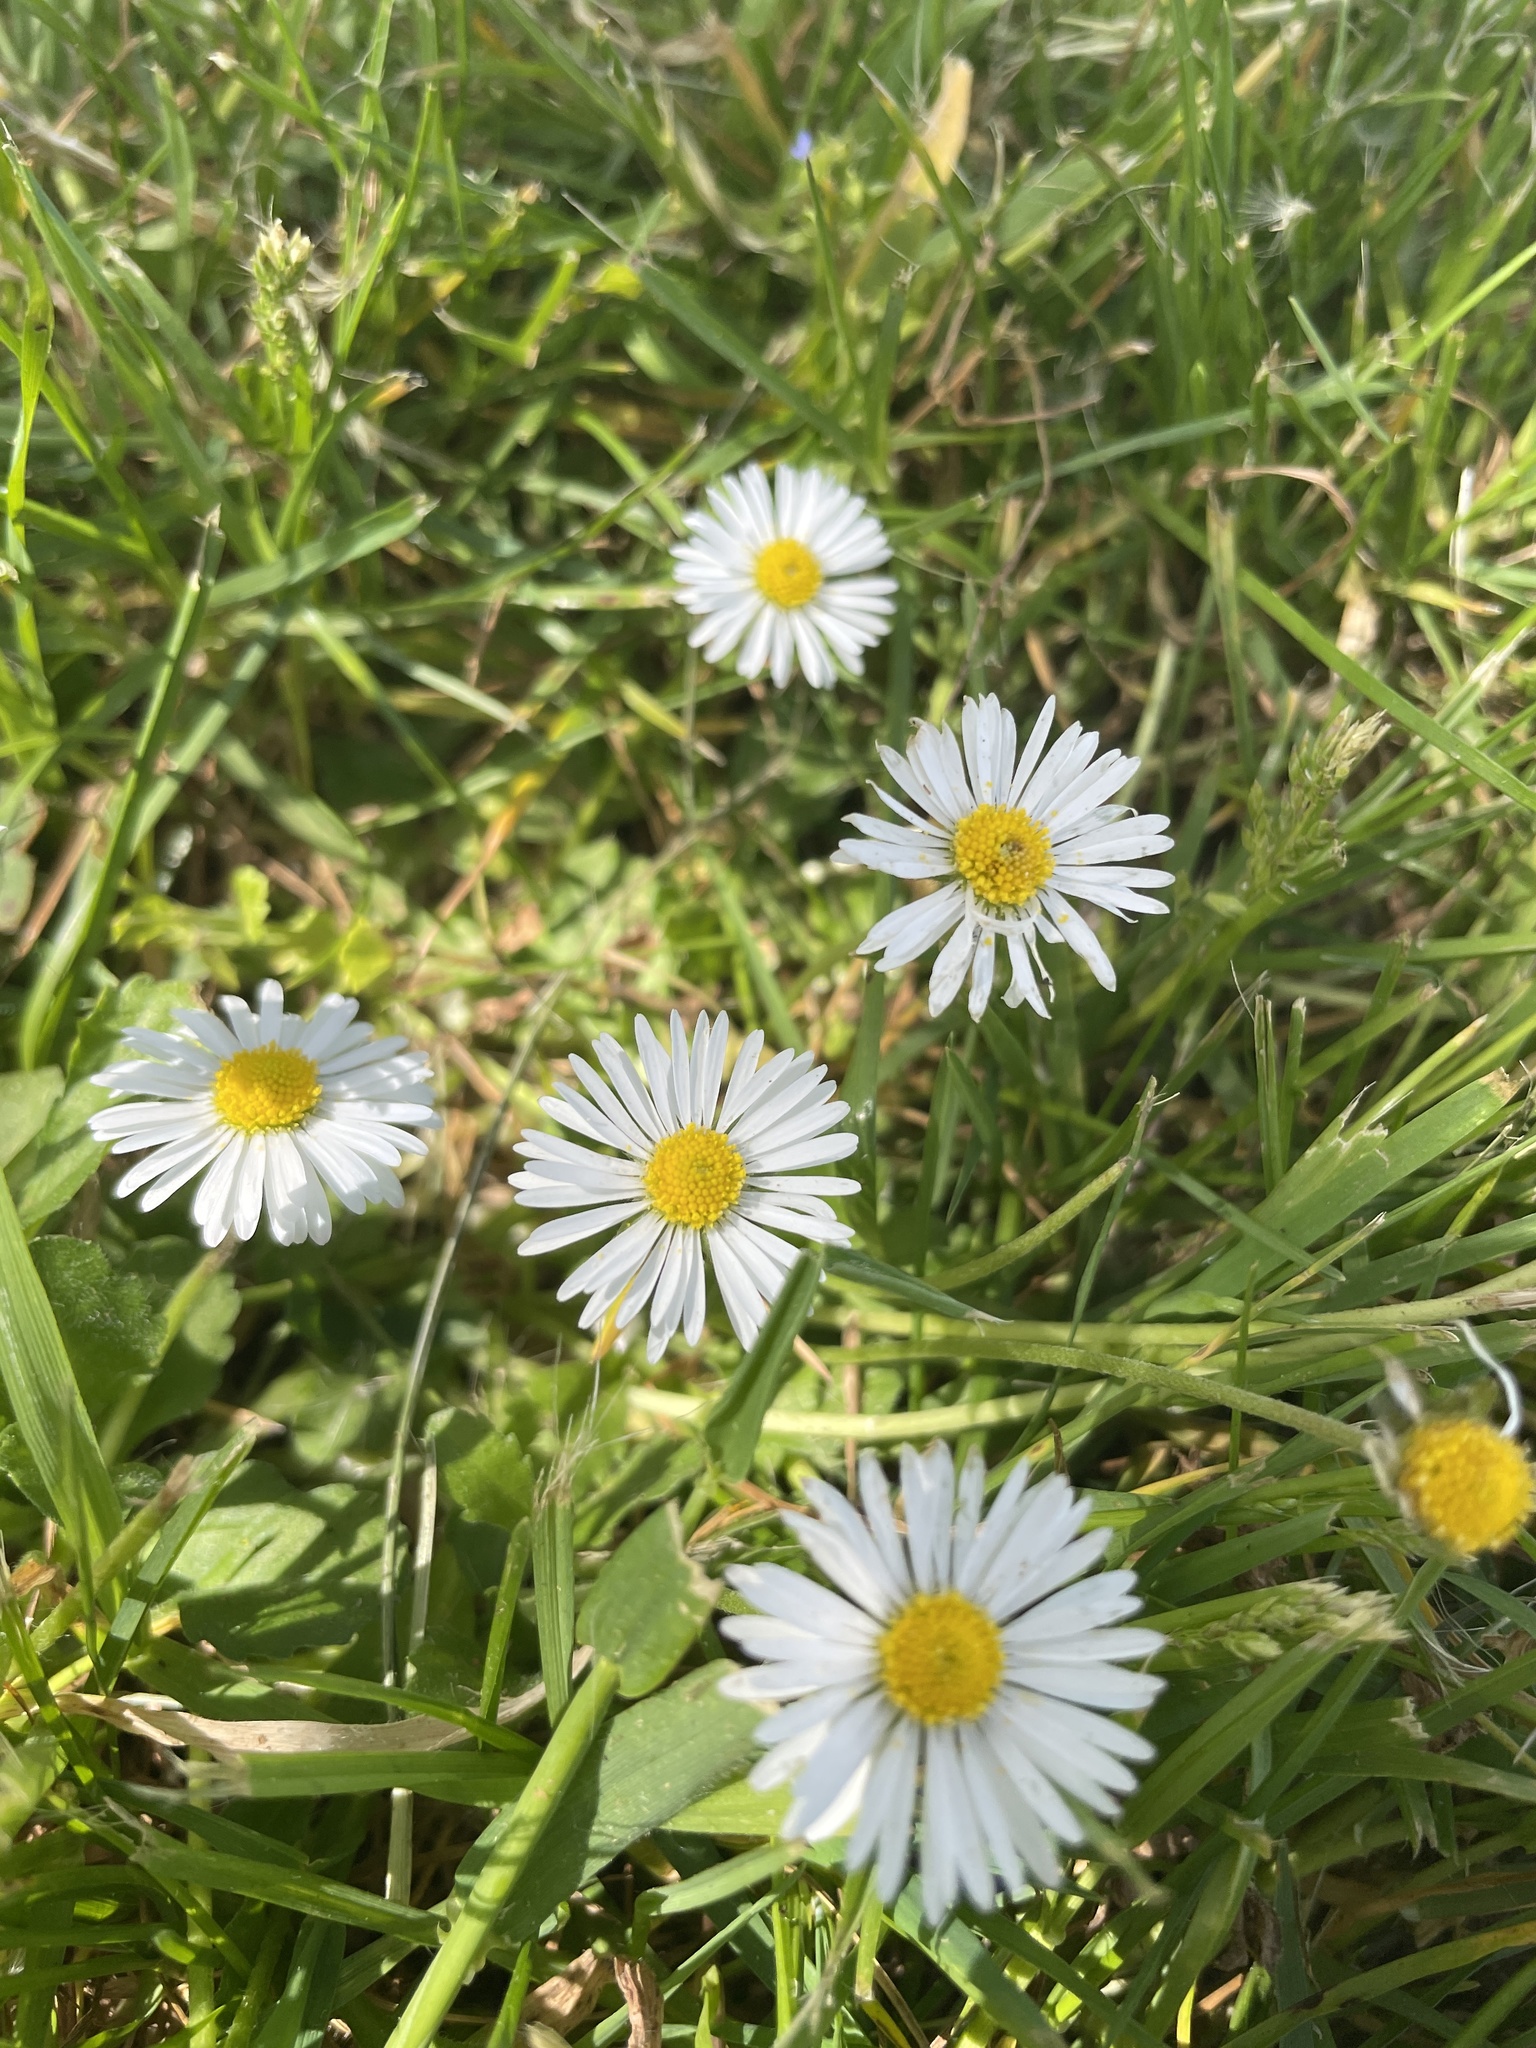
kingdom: Plantae
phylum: Tracheophyta
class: Magnoliopsida
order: Asterales
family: Asteraceae
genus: Bellis
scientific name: Bellis perennis
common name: Lawndaisy
